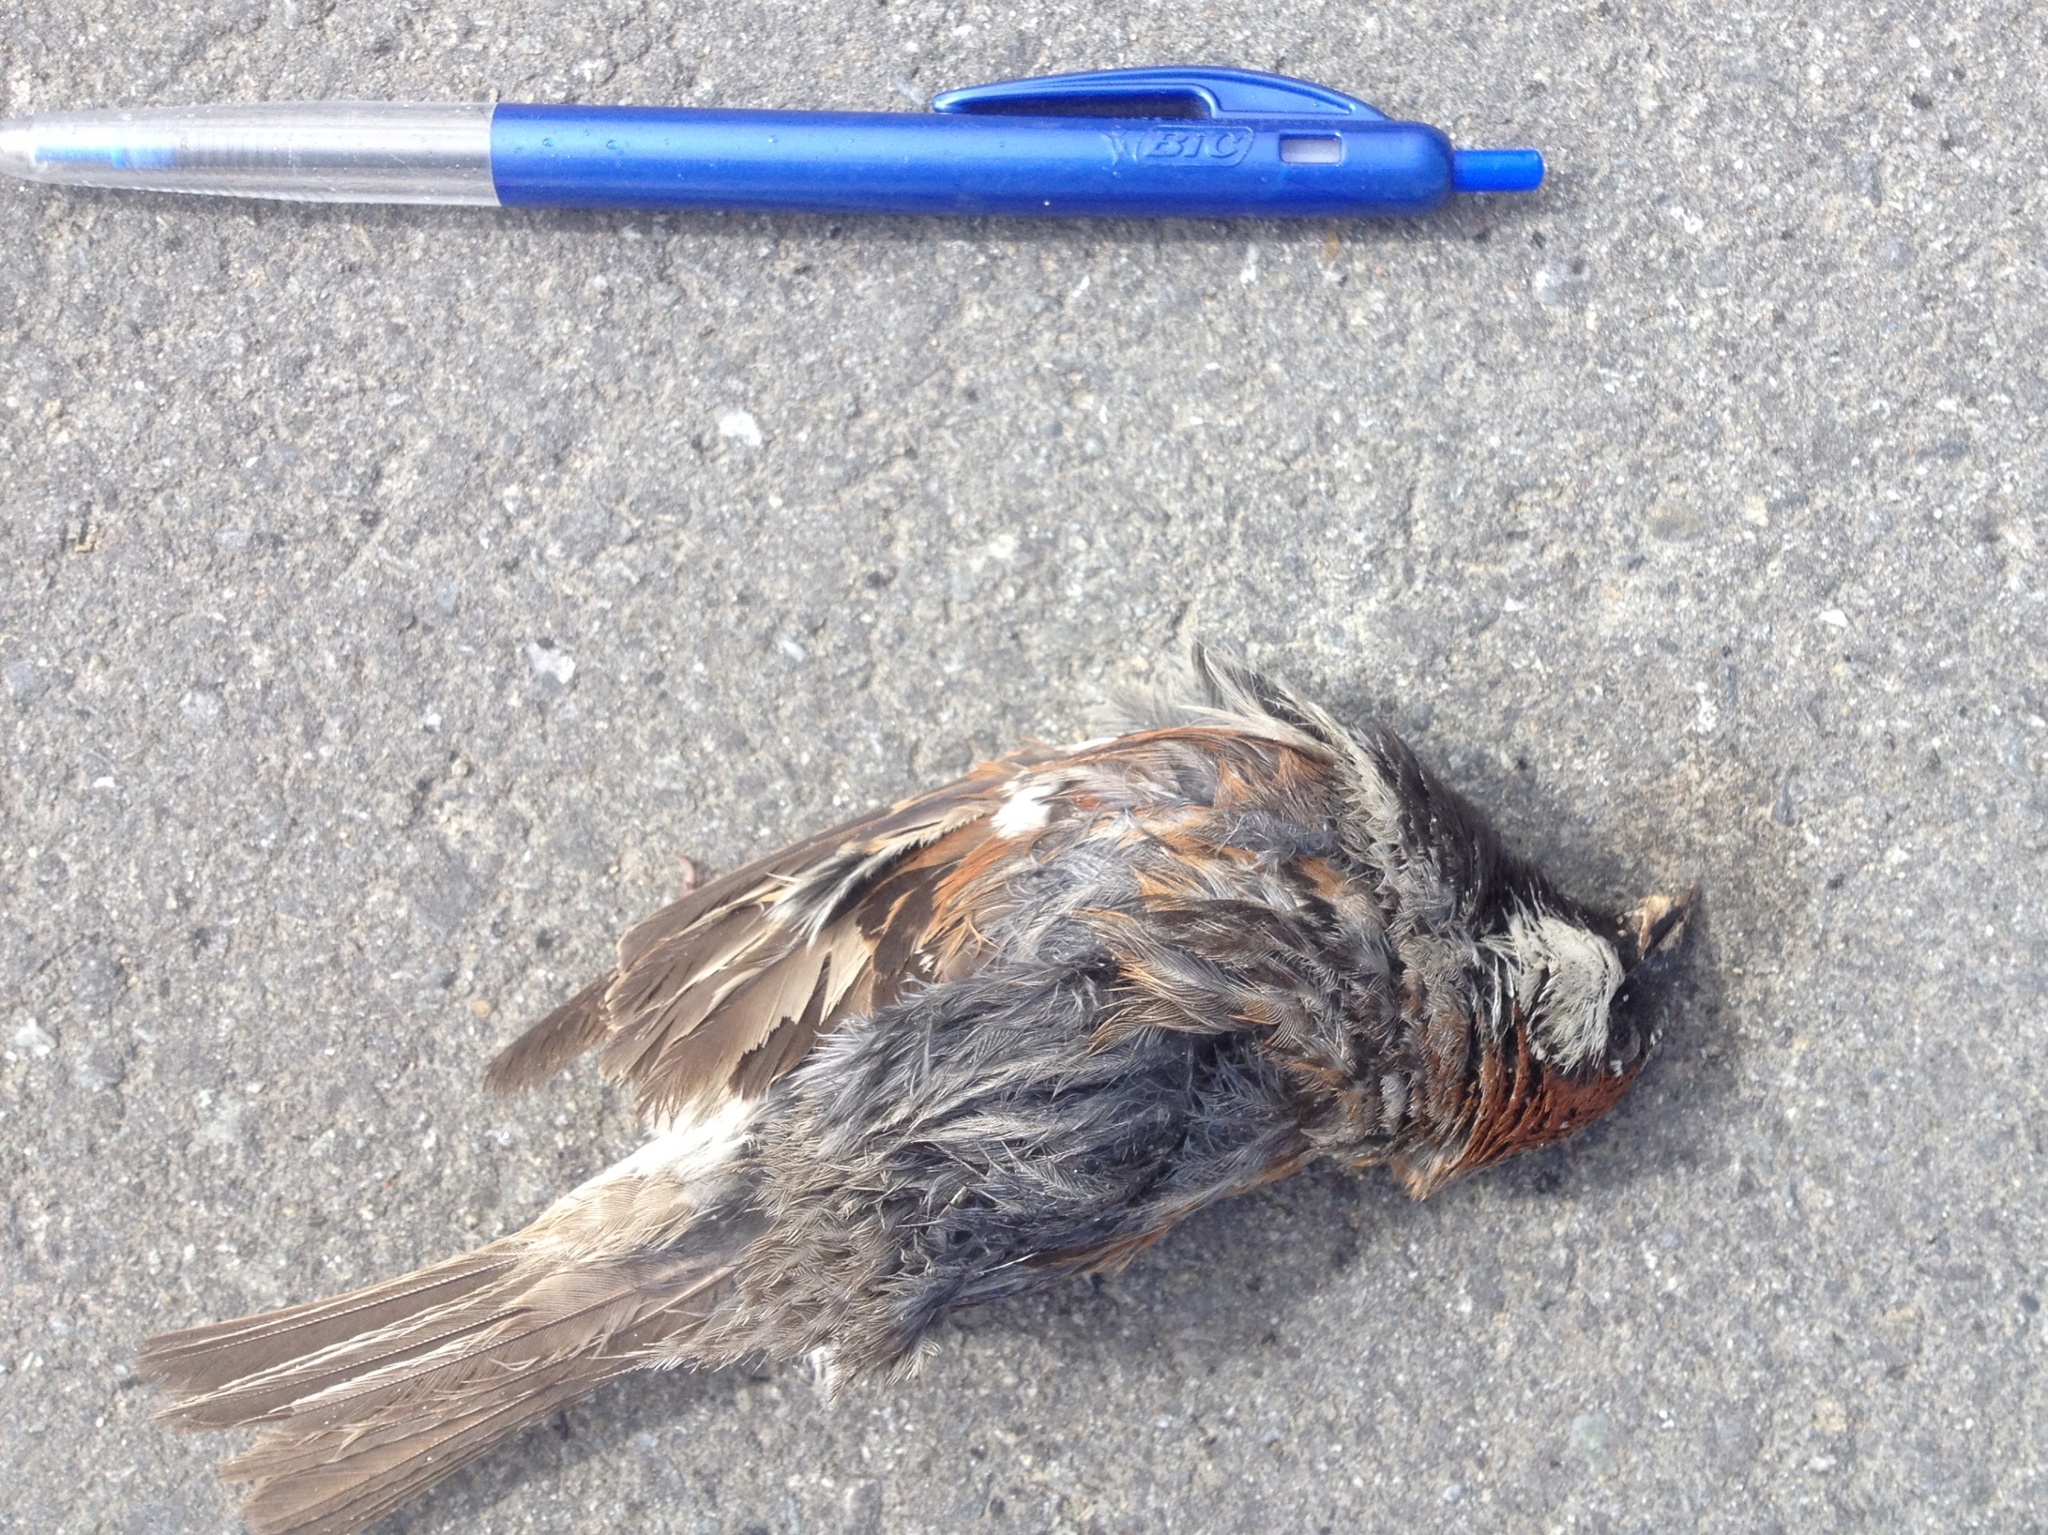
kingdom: Animalia
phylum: Chordata
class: Aves
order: Passeriformes
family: Passeridae
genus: Passer
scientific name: Passer domesticus
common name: House sparrow
